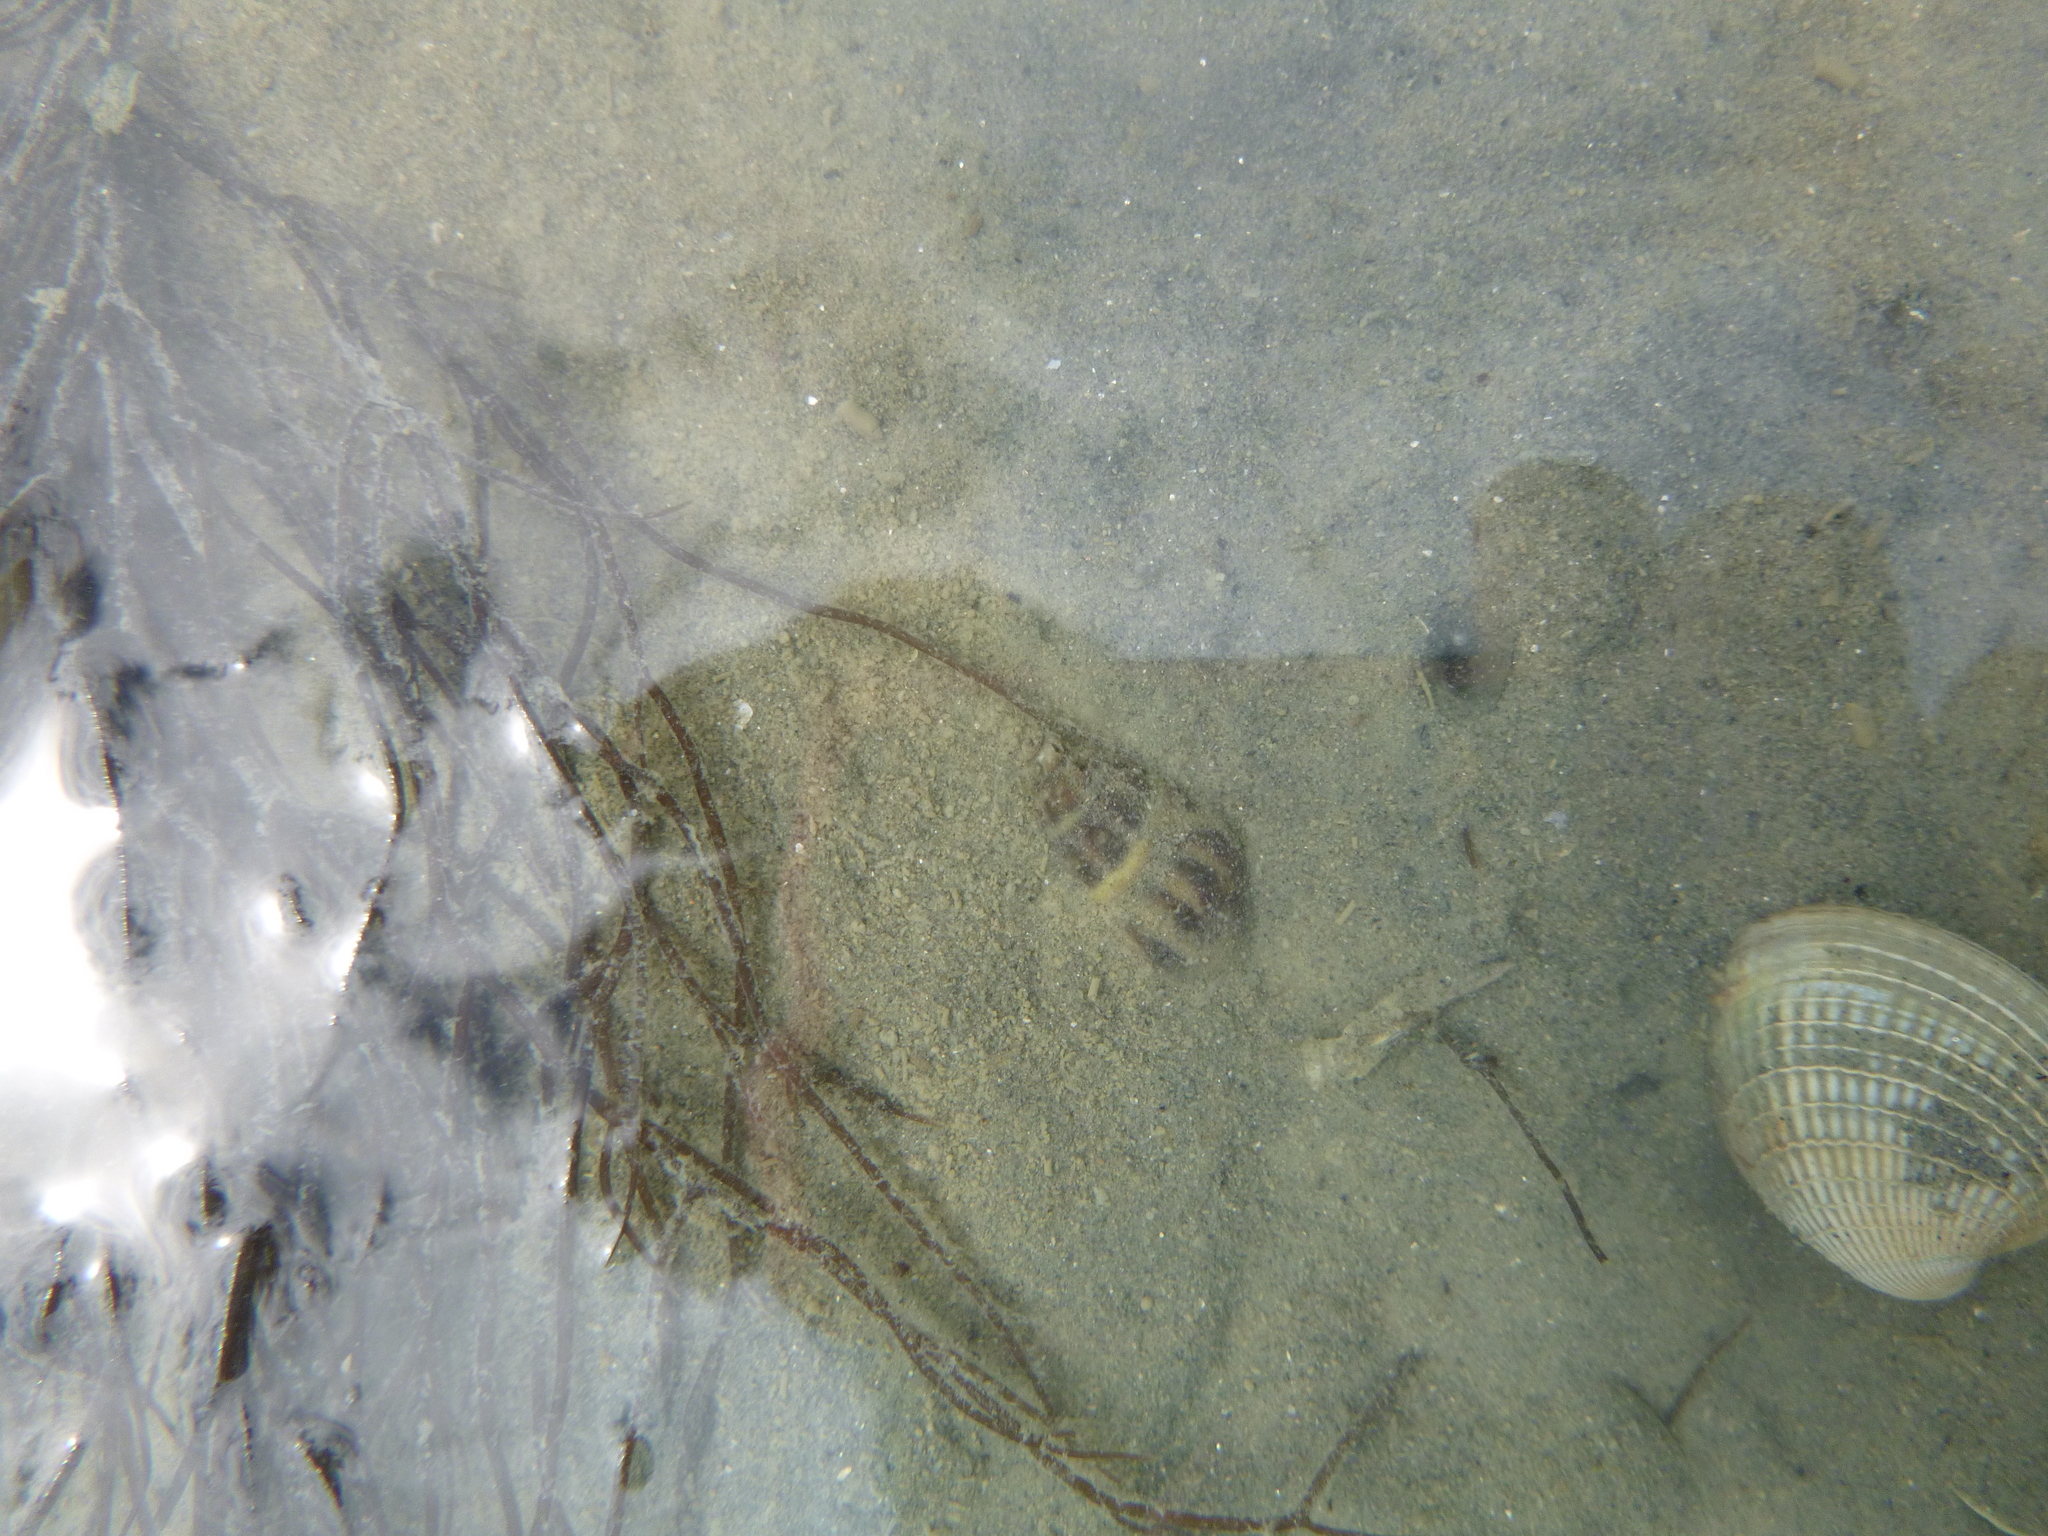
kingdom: Animalia
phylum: Mollusca
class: Gastropoda
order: Neogastropoda
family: Cominellidae
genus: Cominella
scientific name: Cominella glandiformis
